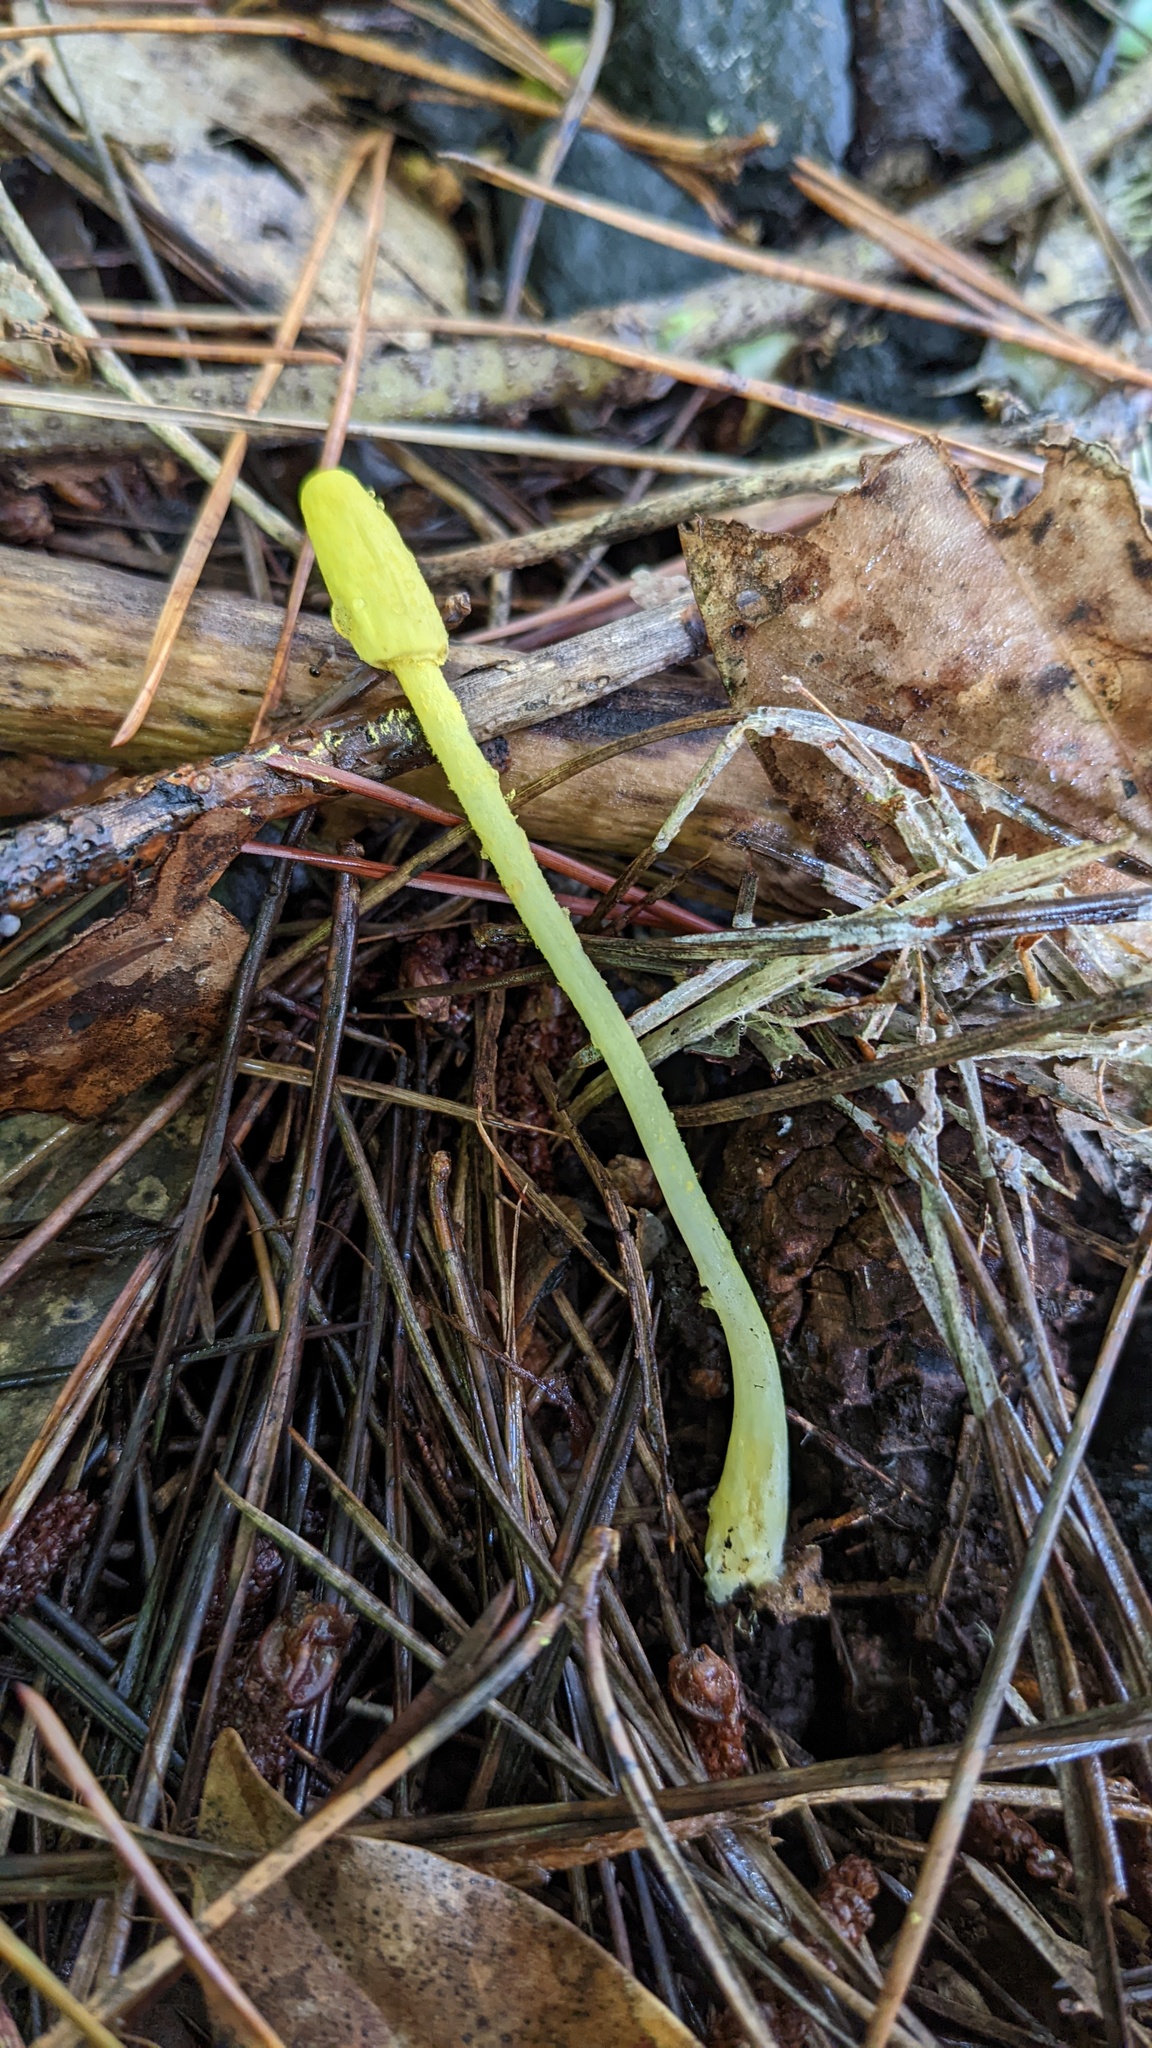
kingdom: Fungi
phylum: Basidiomycota
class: Agaricomycetes
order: Agaricales
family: Agaricaceae
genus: Leucocoprinus
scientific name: Leucocoprinus fragilissimus
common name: Fragile dapperling
